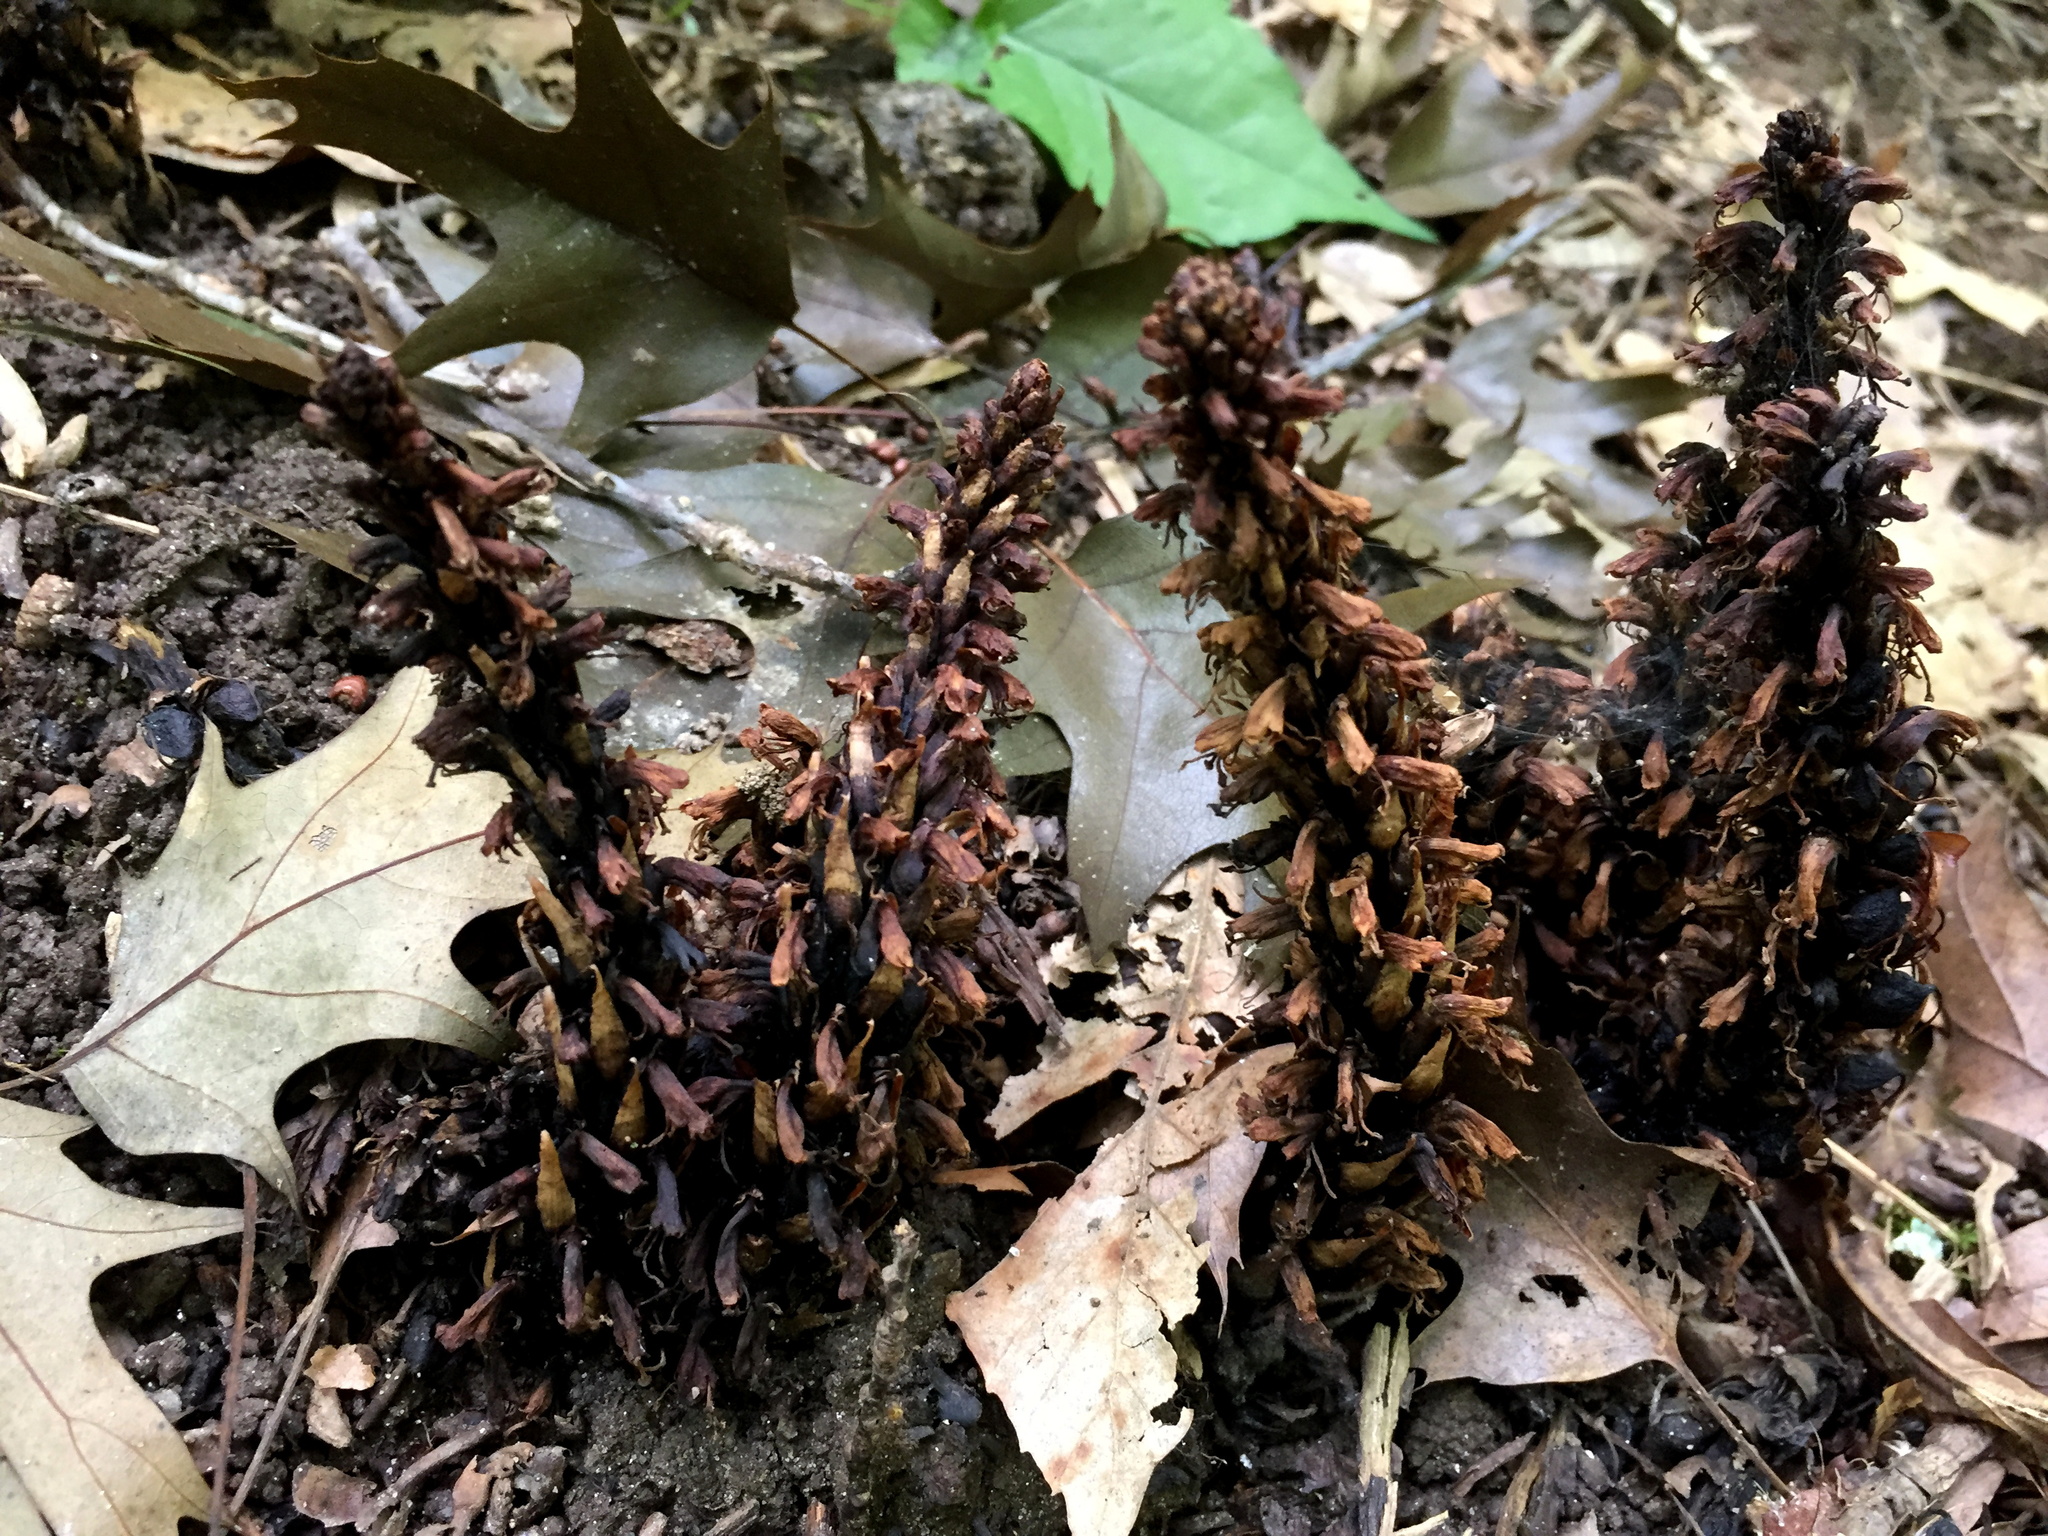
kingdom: Plantae
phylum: Tracheophyta
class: Magnoliopsida
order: Lamiales
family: Orobanchaceae
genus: Conopholis
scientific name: Conopholis americana
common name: American cancer-root
